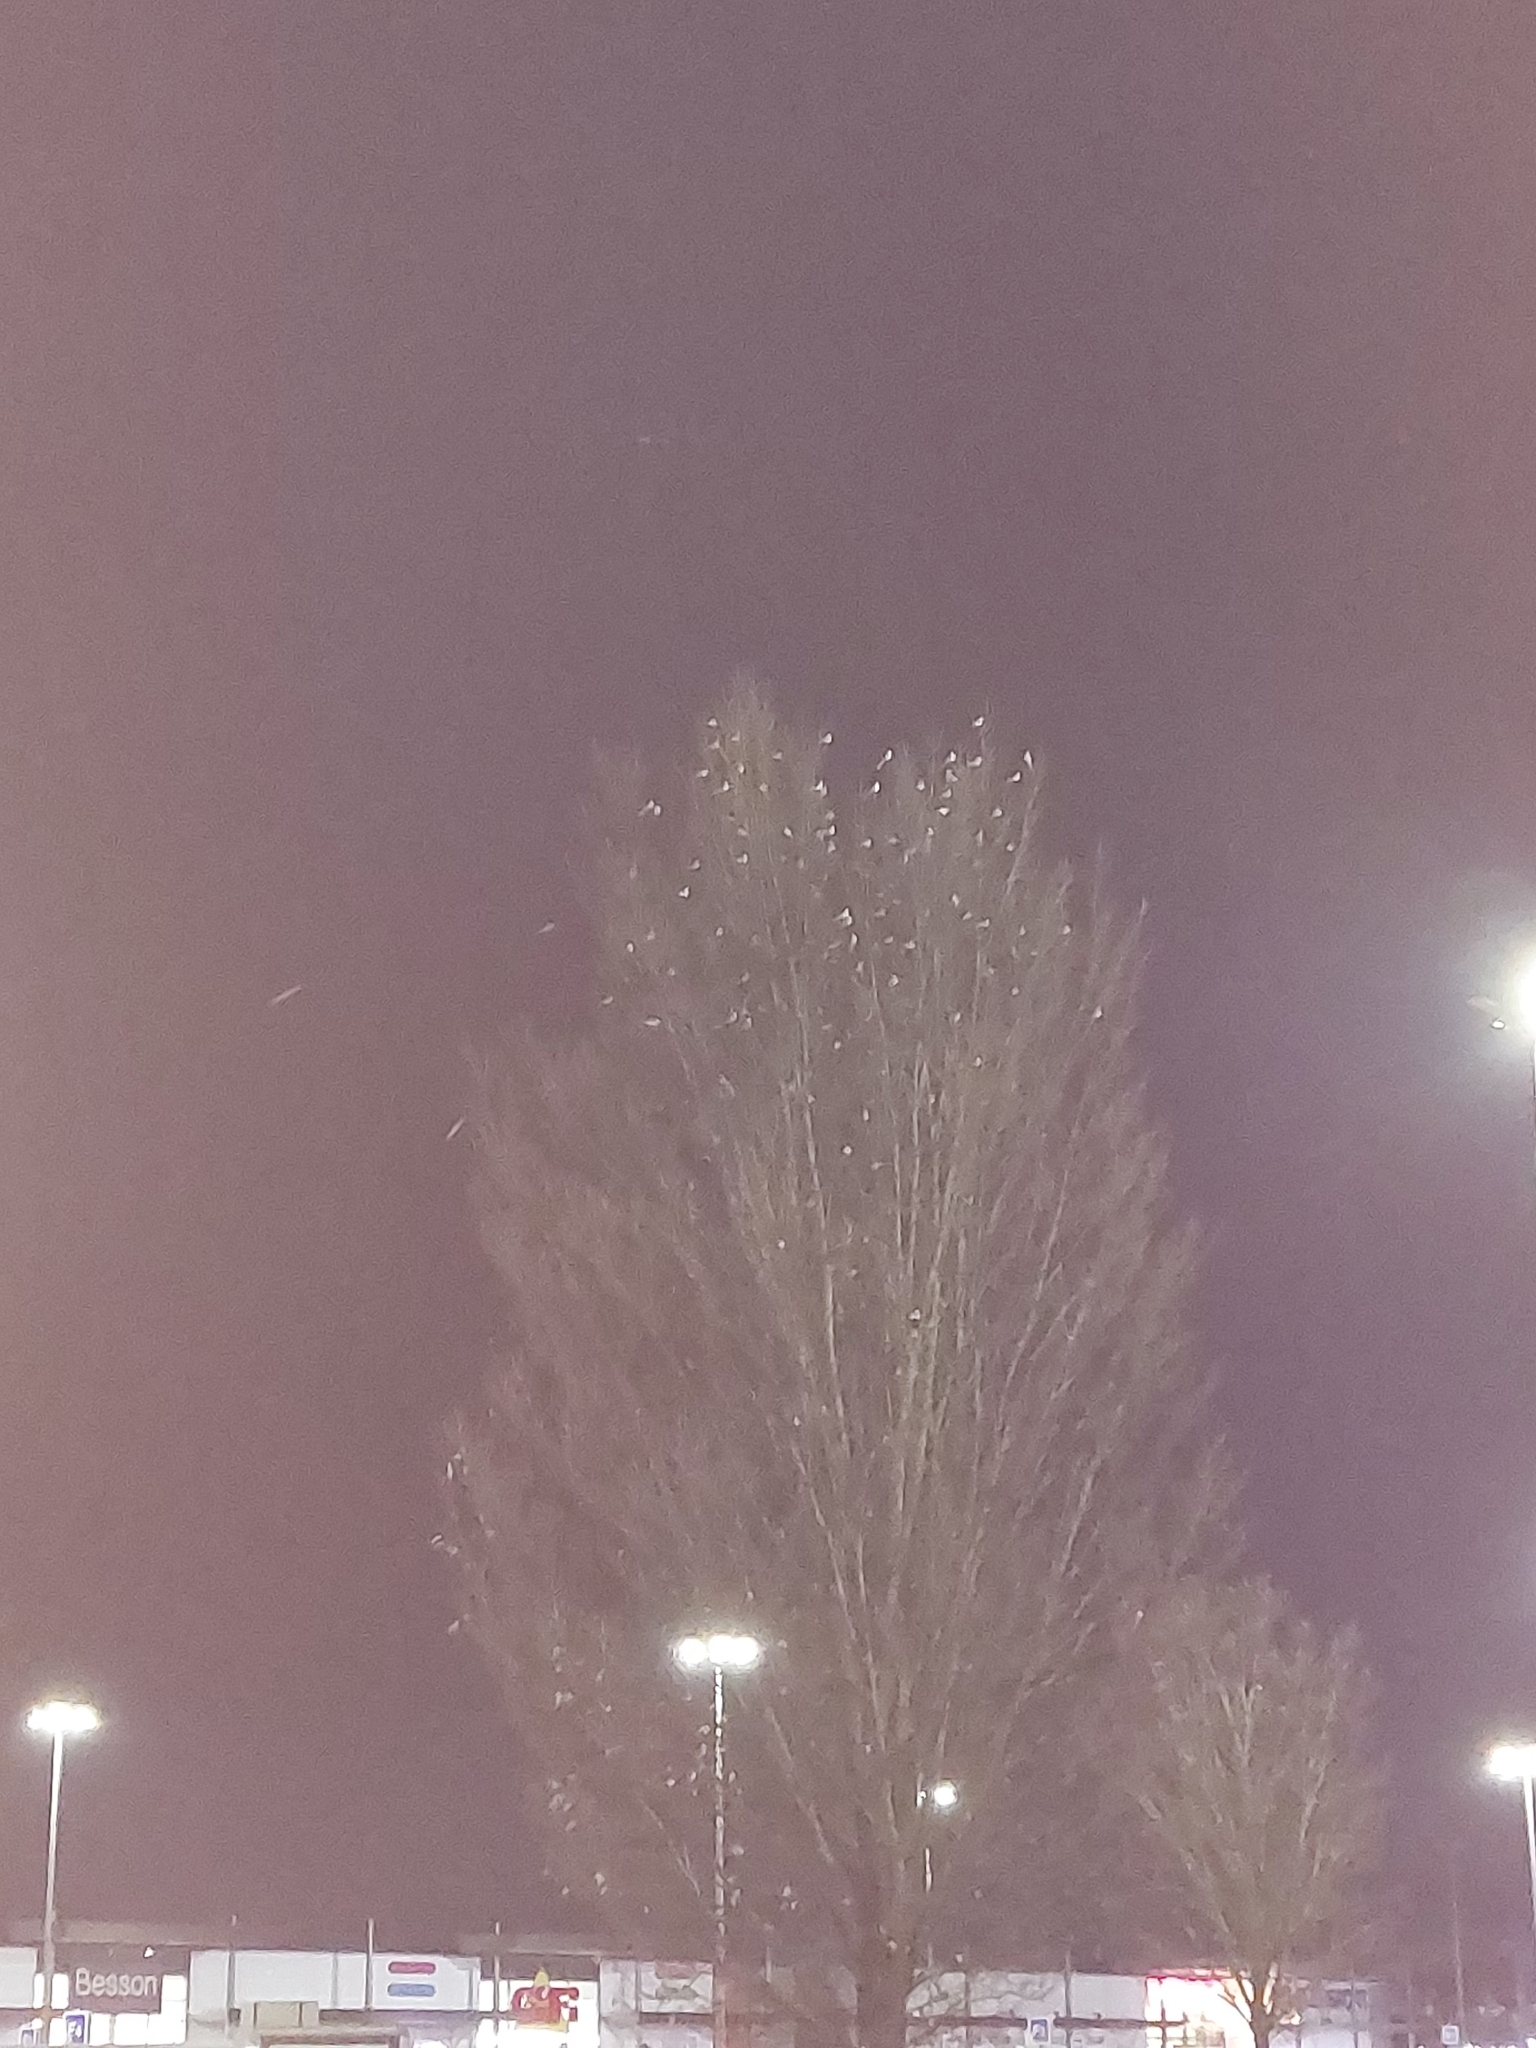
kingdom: Animalia
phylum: Chordata
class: Aves
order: Passeriformes
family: Motacillidae
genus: Motacilla
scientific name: Motacilla alba
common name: White wagtail
